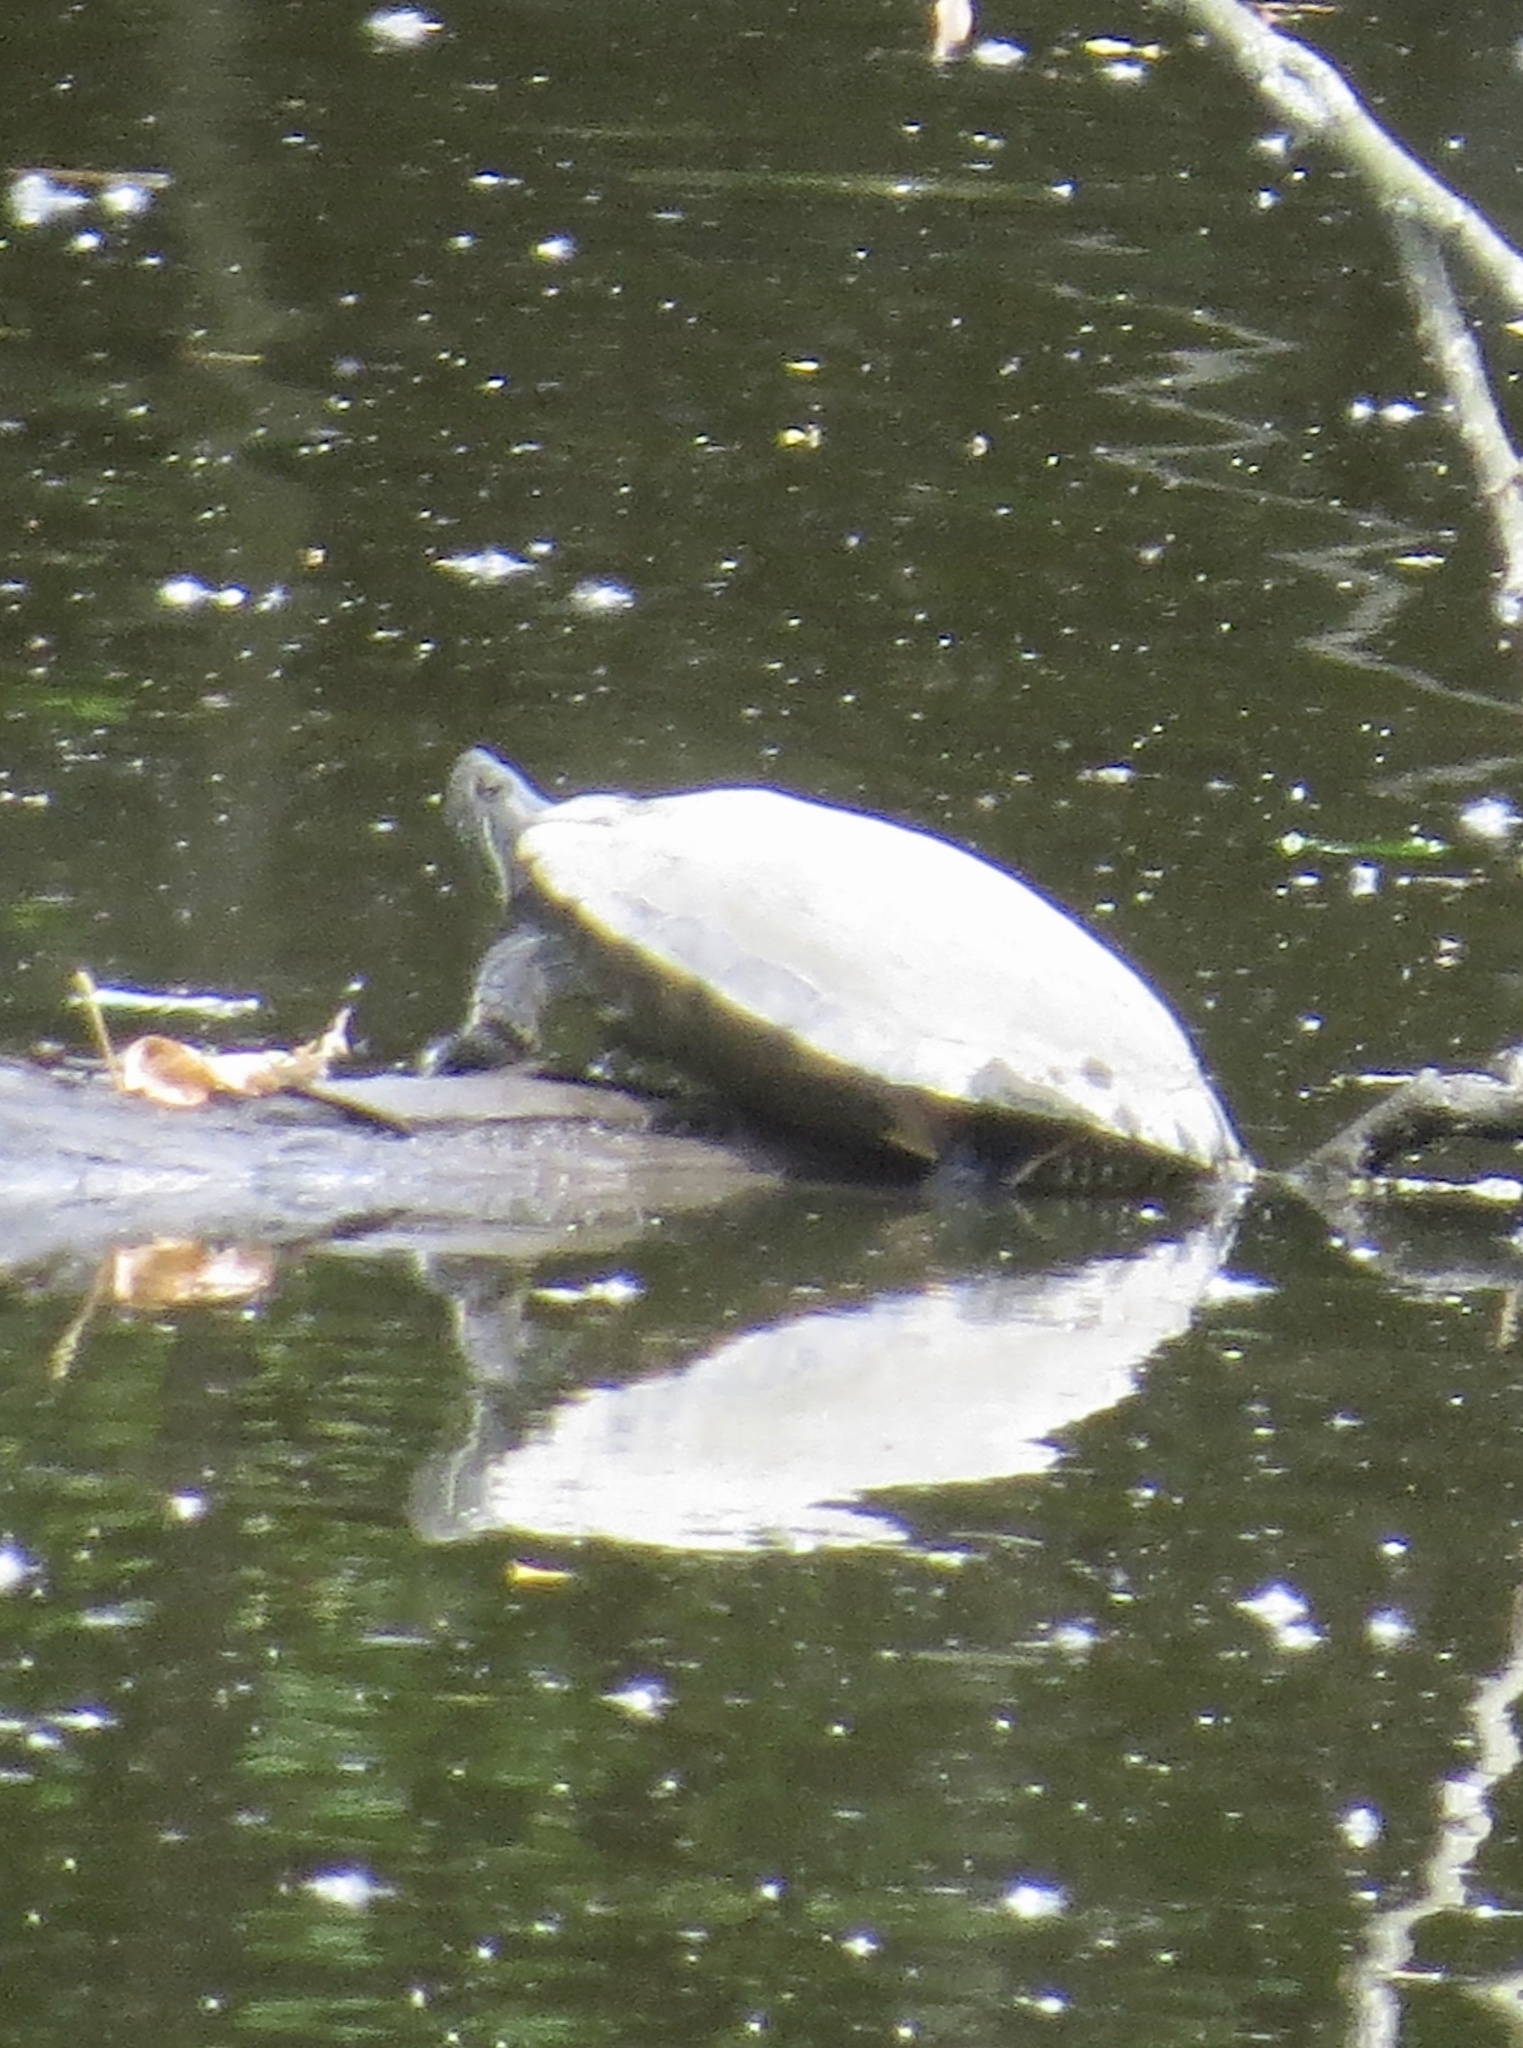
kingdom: Animalia
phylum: Chordata
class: Testudines
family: Emydidae
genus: Trachemys
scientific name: Trachemys scripta
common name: Slider
